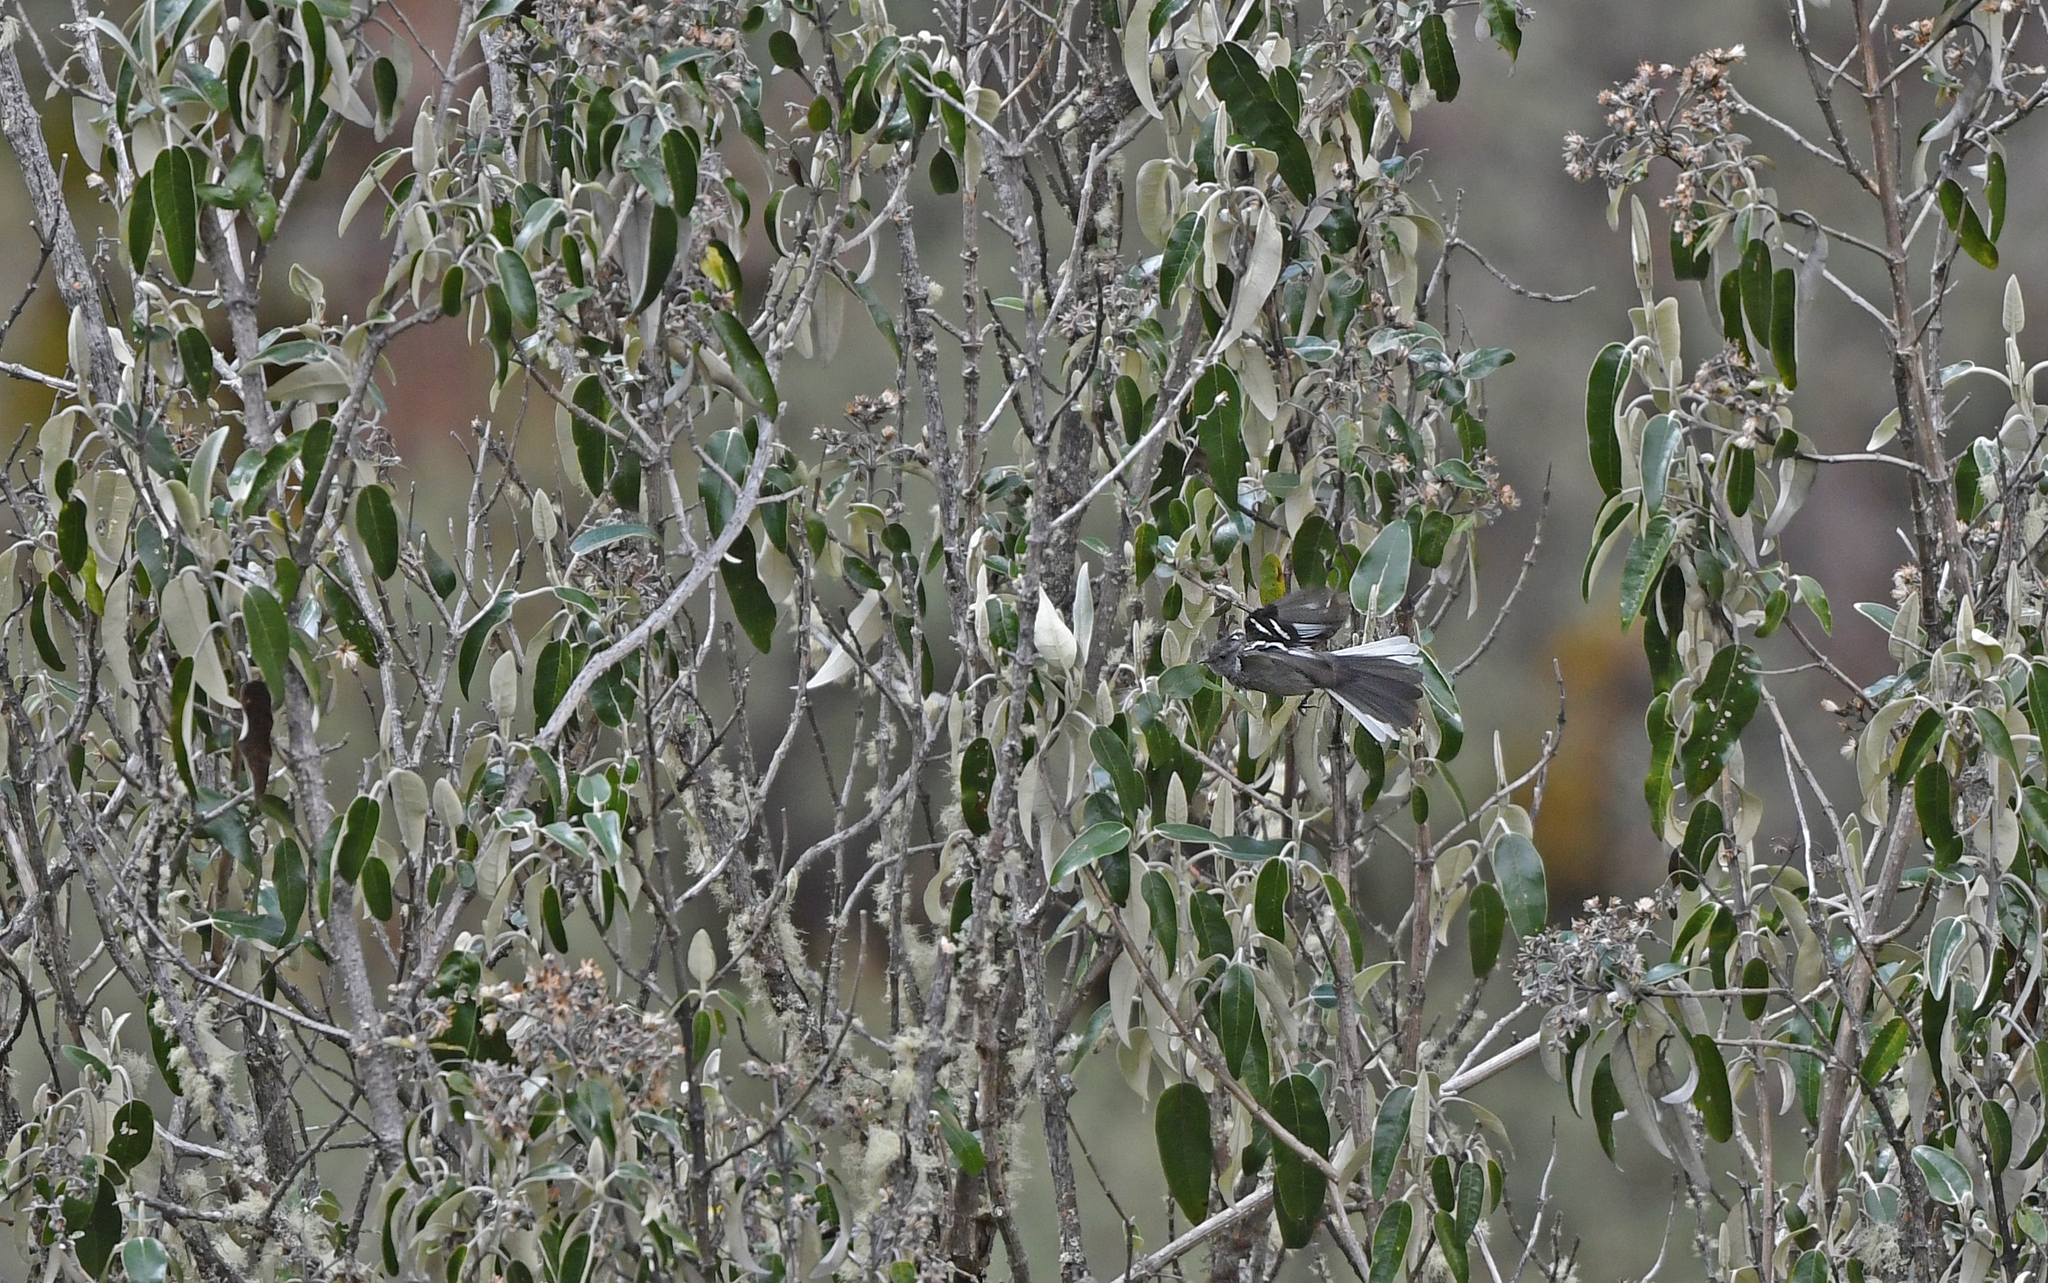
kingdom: Animalia
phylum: Chordata
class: Aves
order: Passeriformes
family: Tyrannidae
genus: Anairetes
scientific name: Anairetes alpinus
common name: Ash-breasted tit-tyrant
